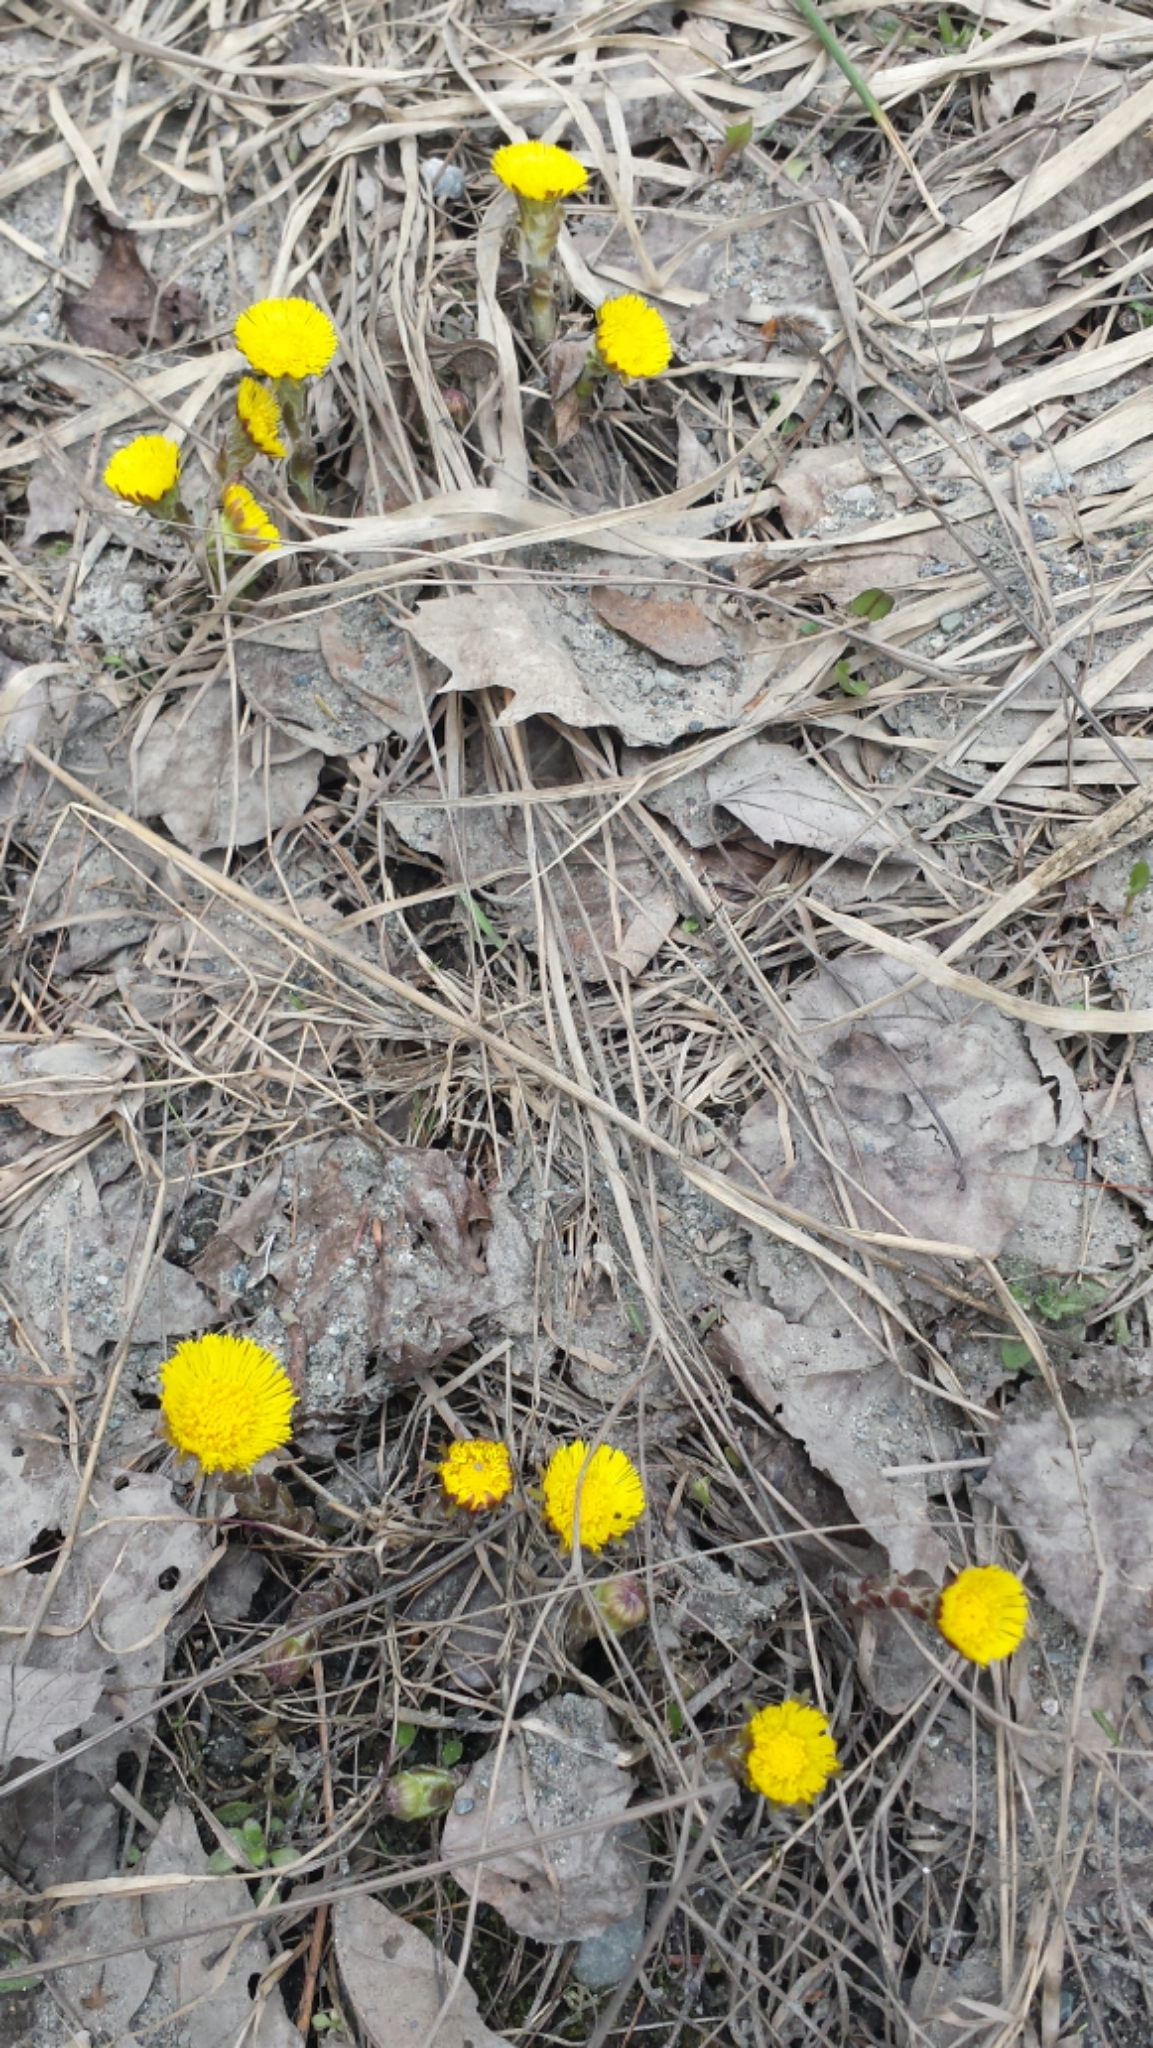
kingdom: Plantae
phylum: Tracheophyta
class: Magnoliopsida
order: Asterales
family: Asteraceae
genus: Tussilago
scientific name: Tussilago farfara
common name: Coltsfoot
